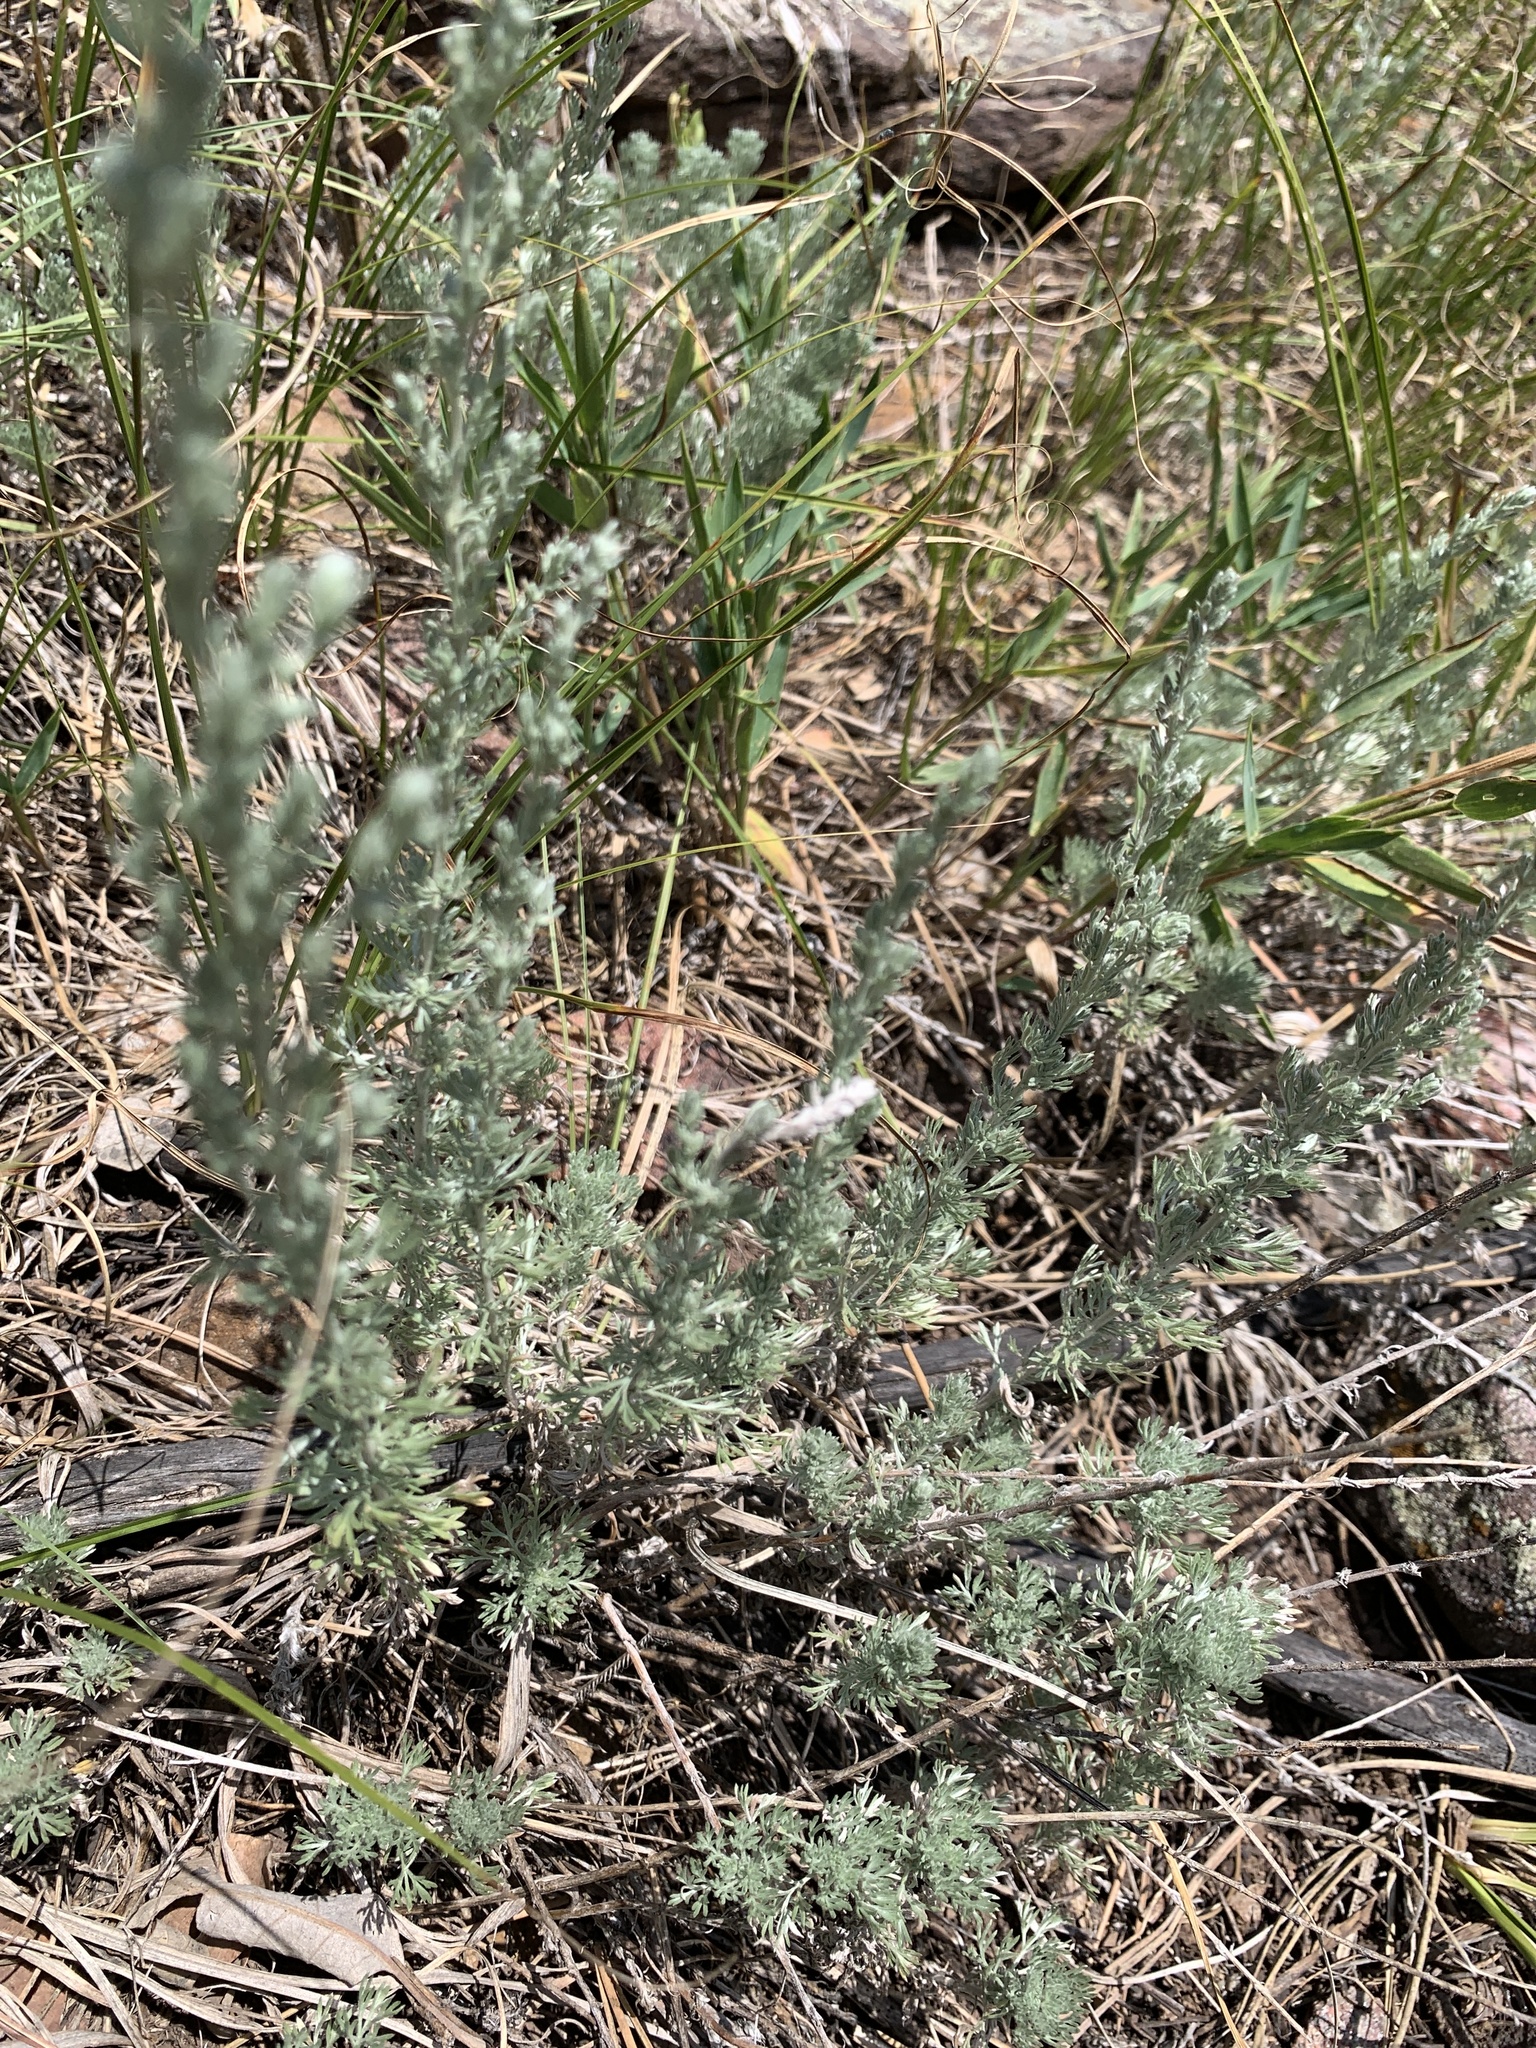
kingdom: Plantae
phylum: Tracheophyta
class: Magnoliopsida
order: Asterales
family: Asteraceae
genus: Artemisia
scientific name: Artemisia frigida
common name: Prairie sagewort
